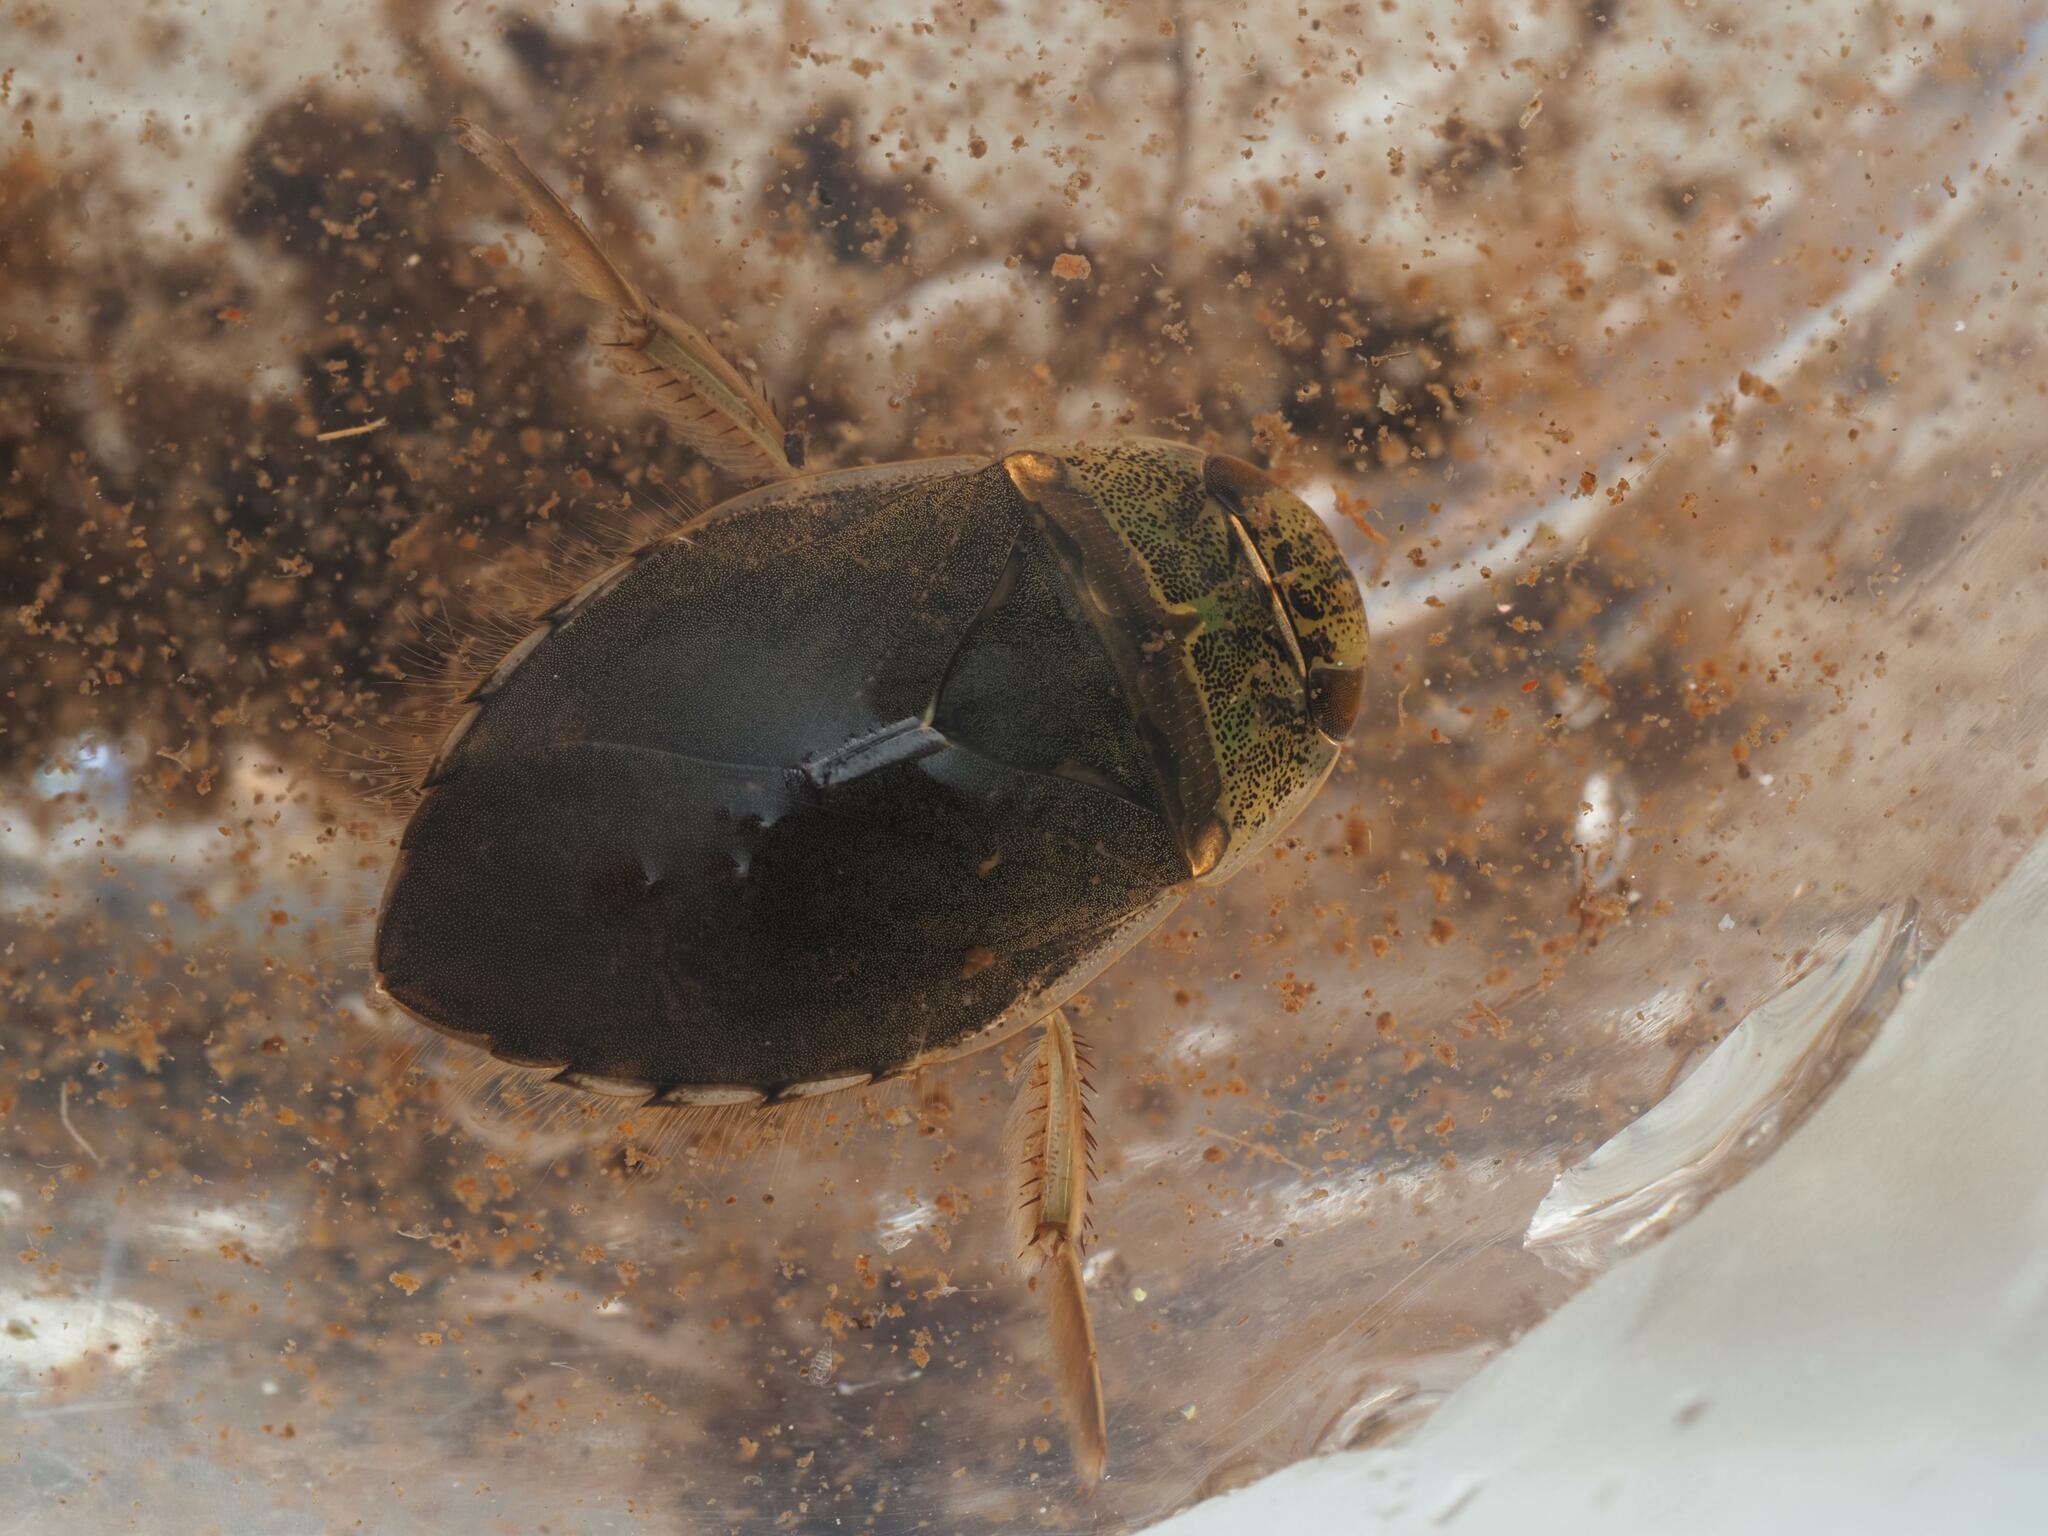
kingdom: Animalia
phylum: Arthropoda
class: Insecta
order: Hemiptera
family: Naucoridae
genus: Ilyocoris
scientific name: Ilyocoris cimicoides
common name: Saucer bugs
